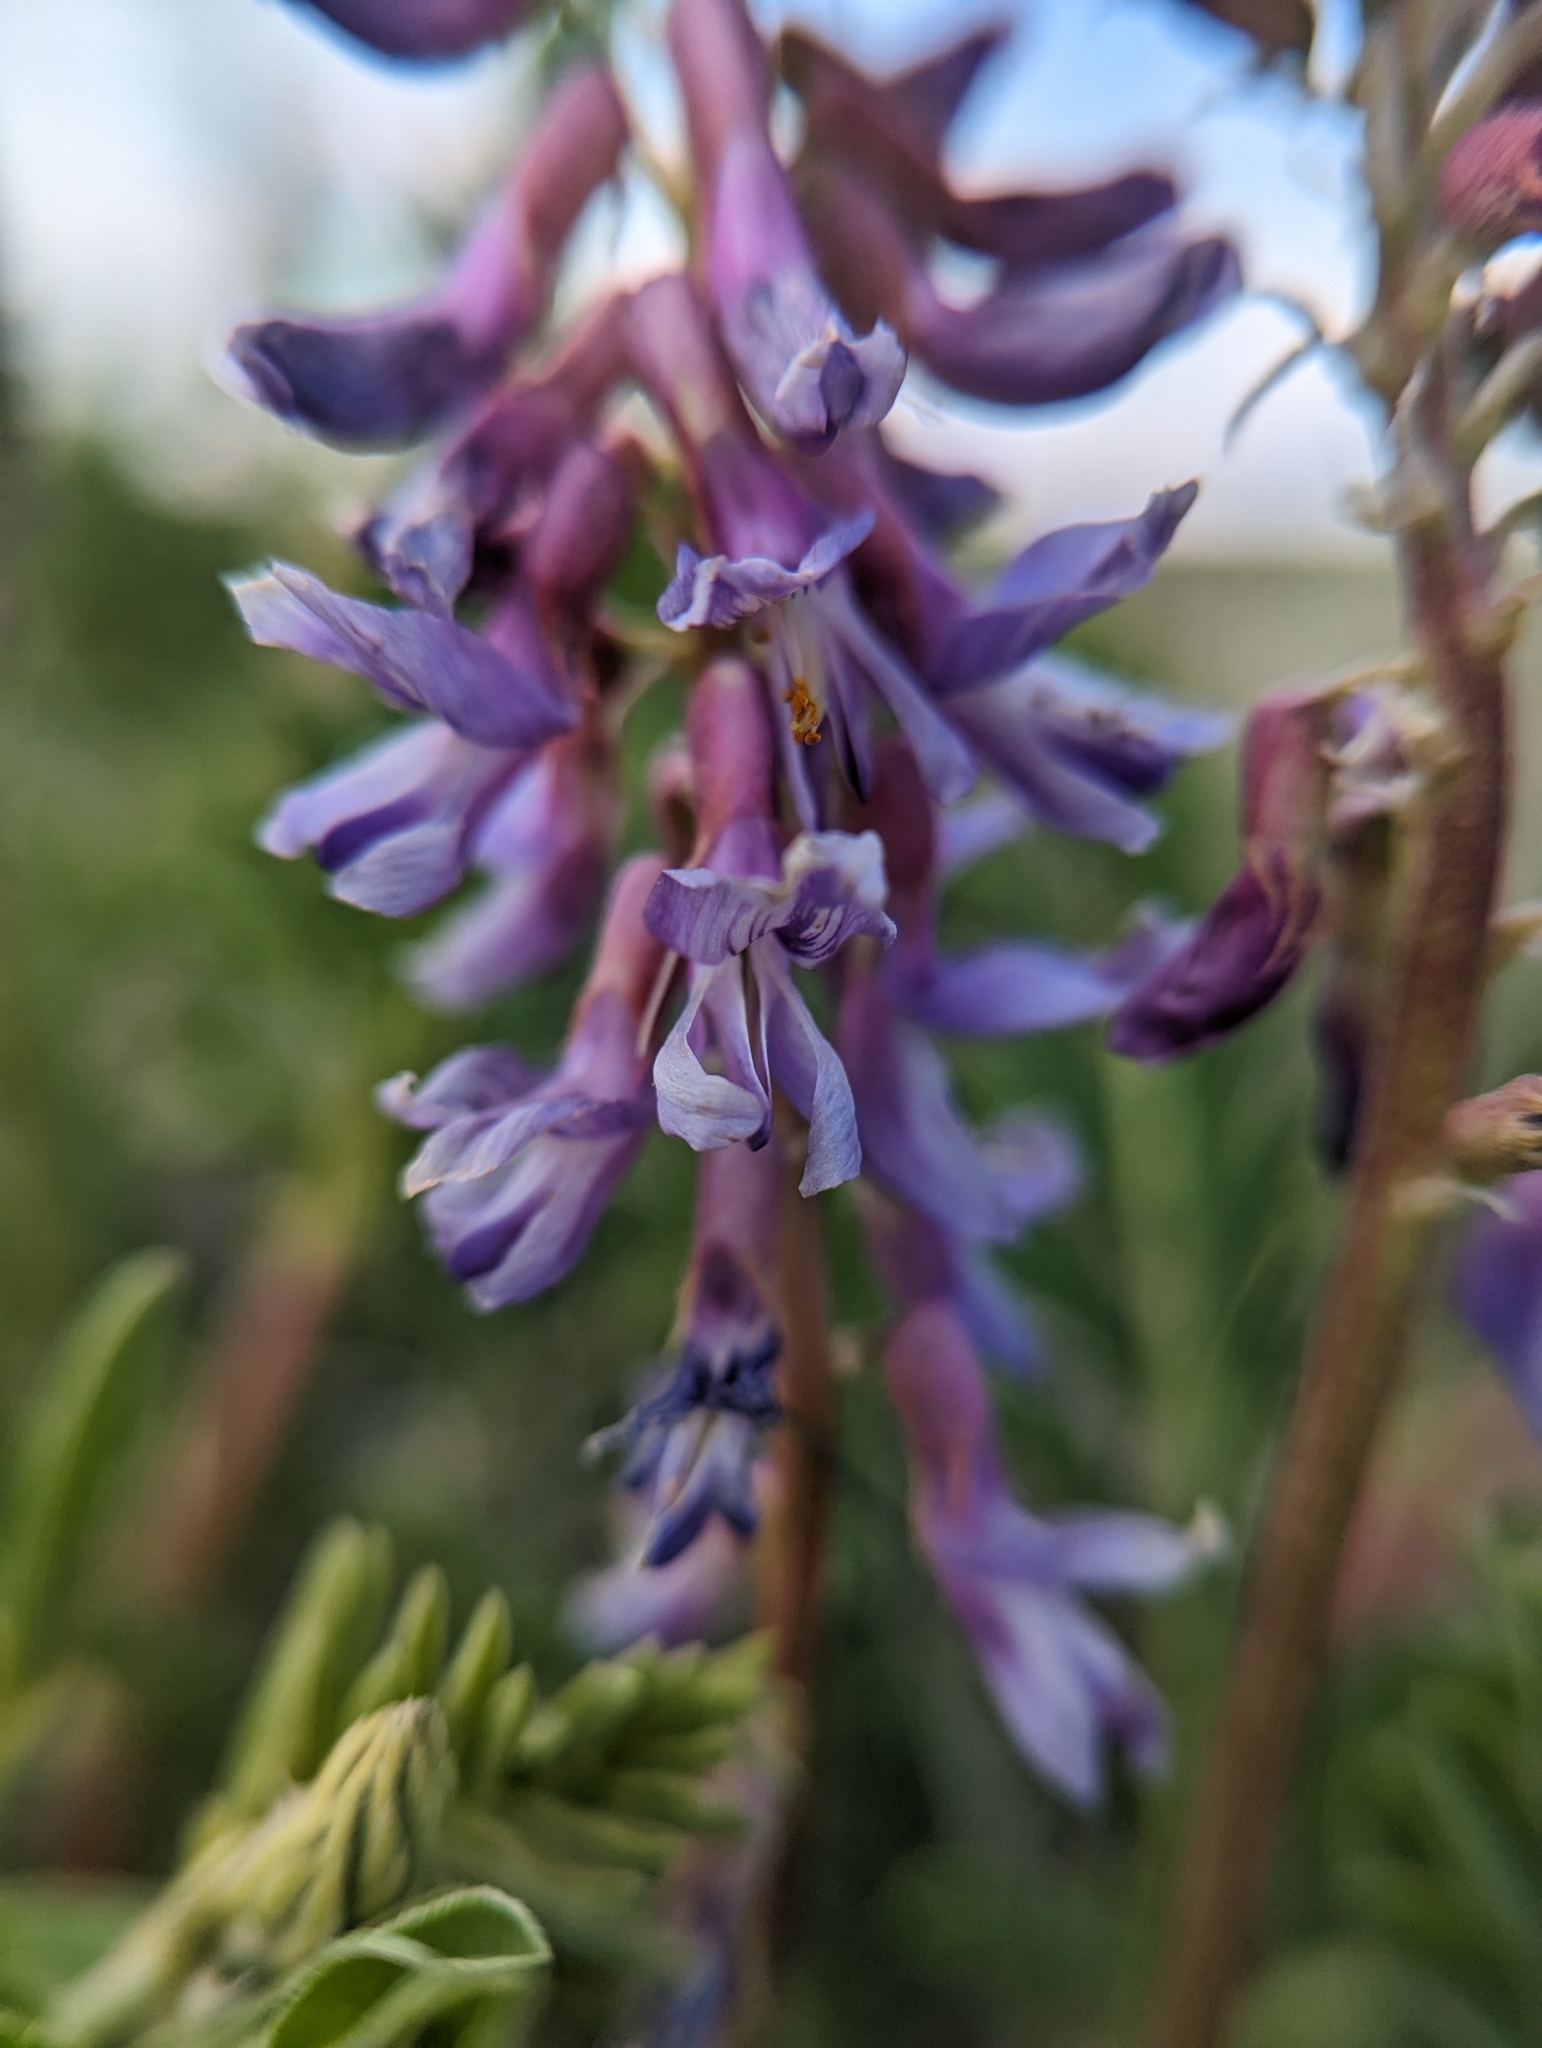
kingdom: Plantae
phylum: Tracheophyta
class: Magnoliopsida
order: Fabales
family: Fabaceae
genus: Astragalus
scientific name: Astragalus bisulcatus
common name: Two-groove milk-vetch
